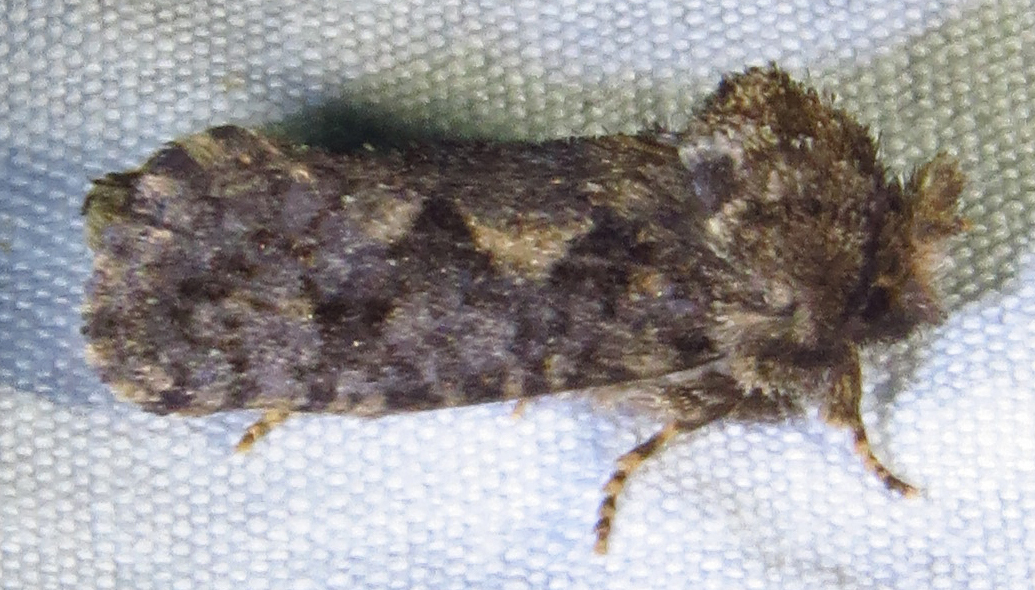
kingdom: Animalia
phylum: Arthropoda
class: Insecta
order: Lepidoptera
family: Tineidae
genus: Acrolophus
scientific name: Acrolophus arcanella
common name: Arcane grass tubeworm moth
